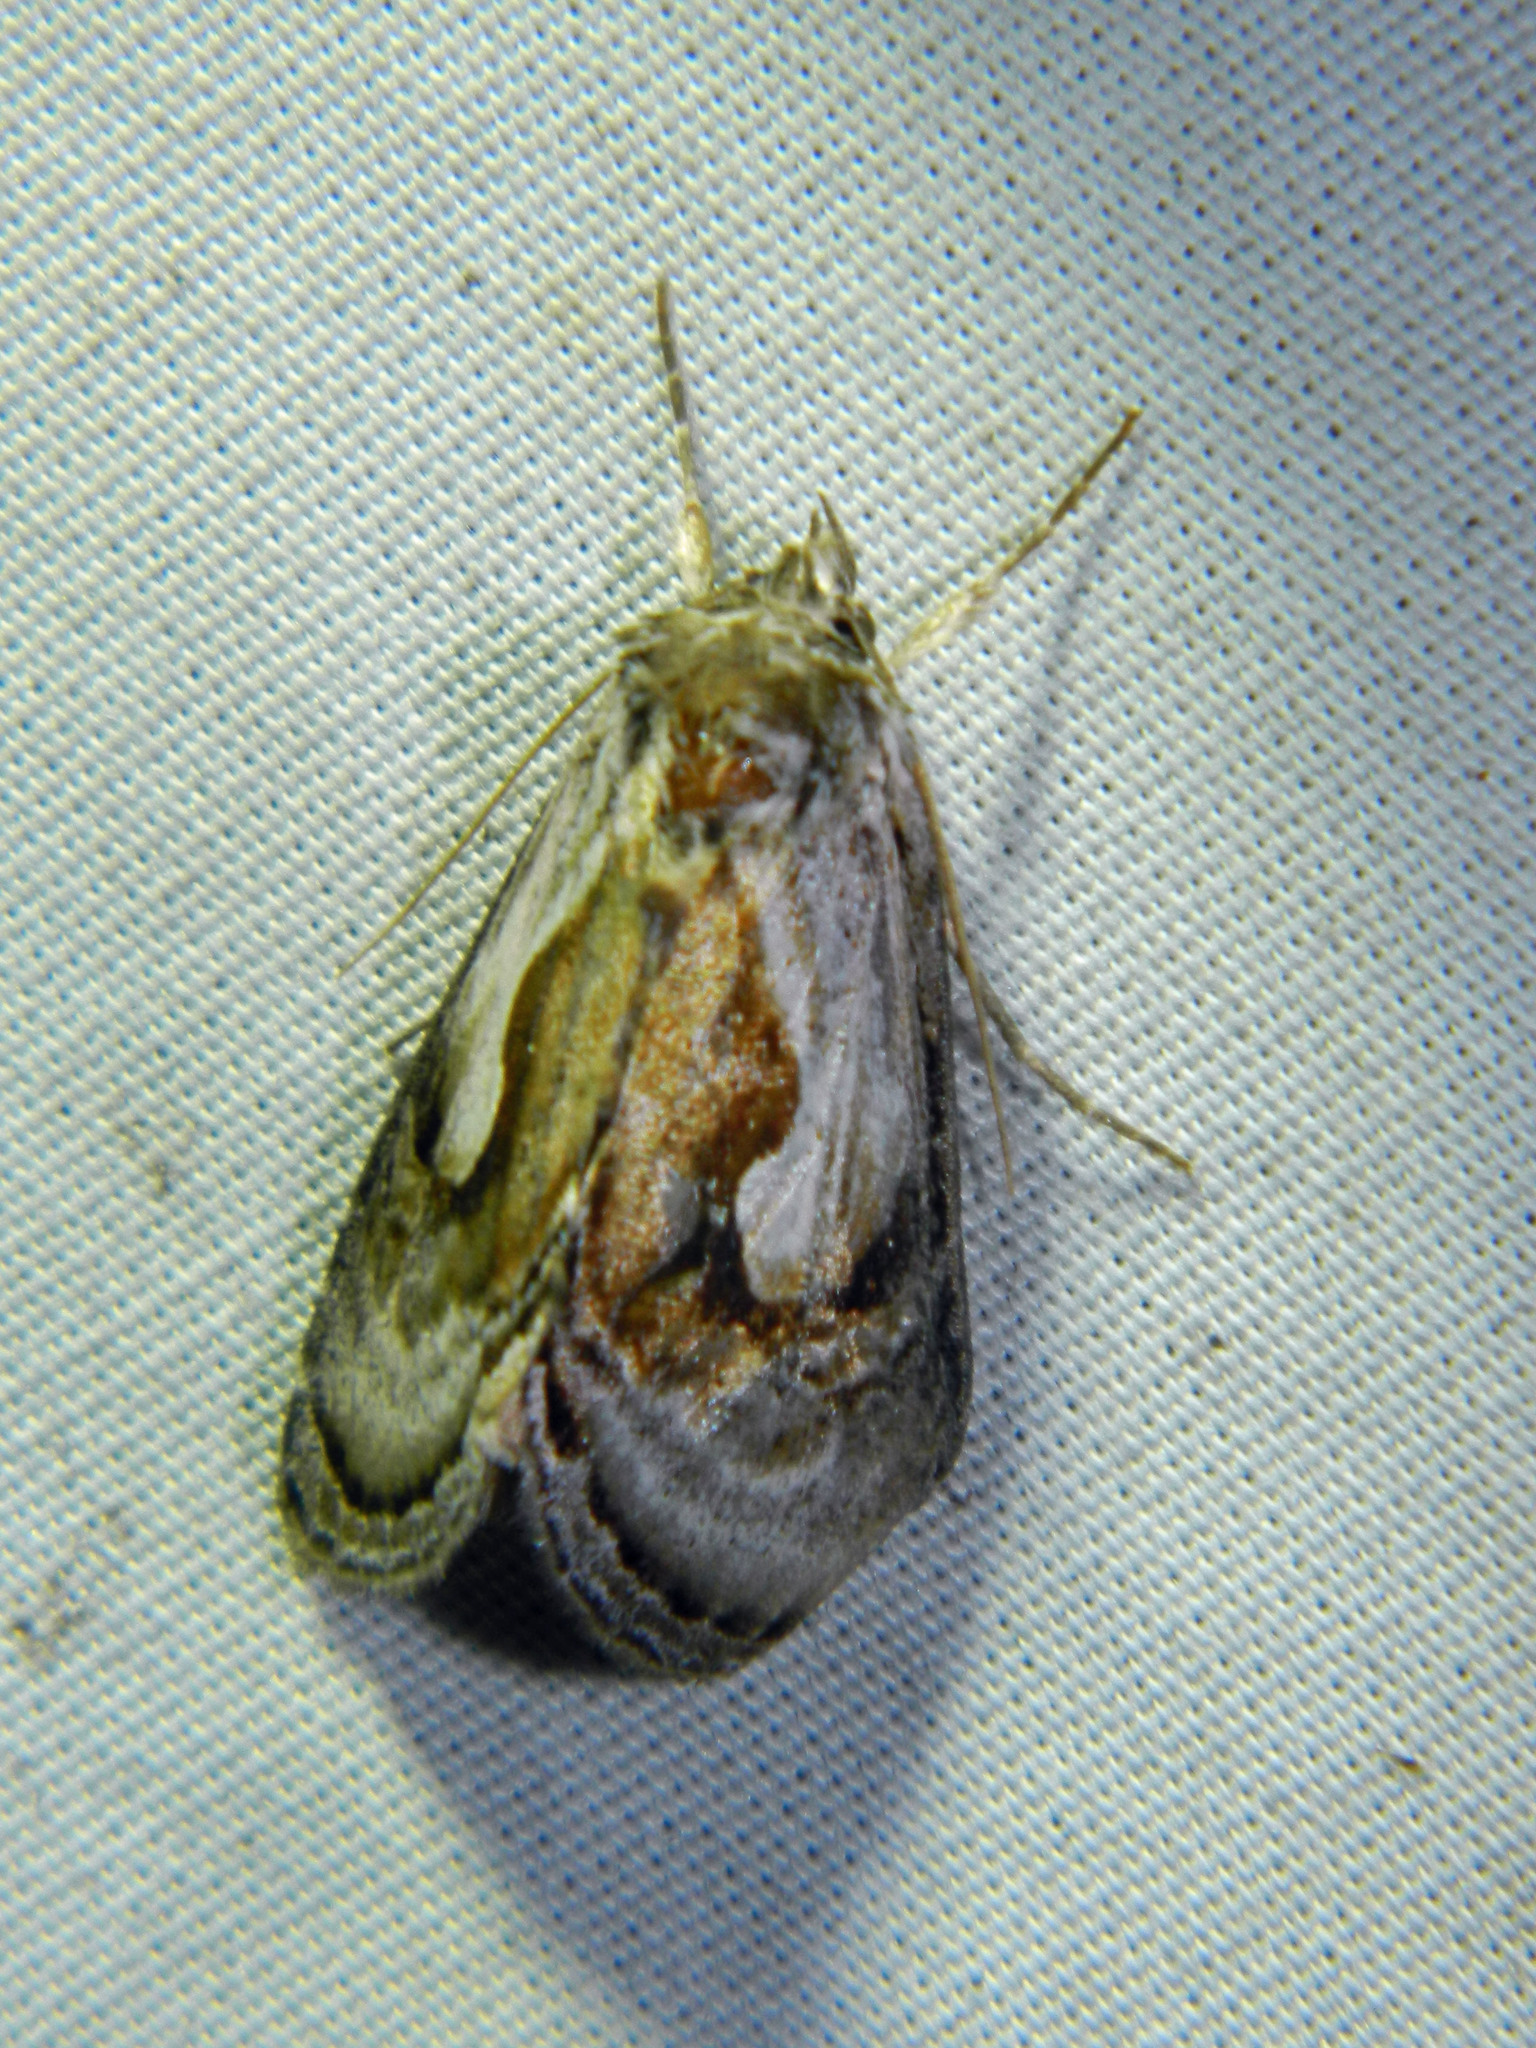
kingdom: Animalia
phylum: Arthropoda
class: Insecta
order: Lepidoptera
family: Noctuidae
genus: Chrysanympha
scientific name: Chrysanympha formosa
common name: Formosa looper moth
